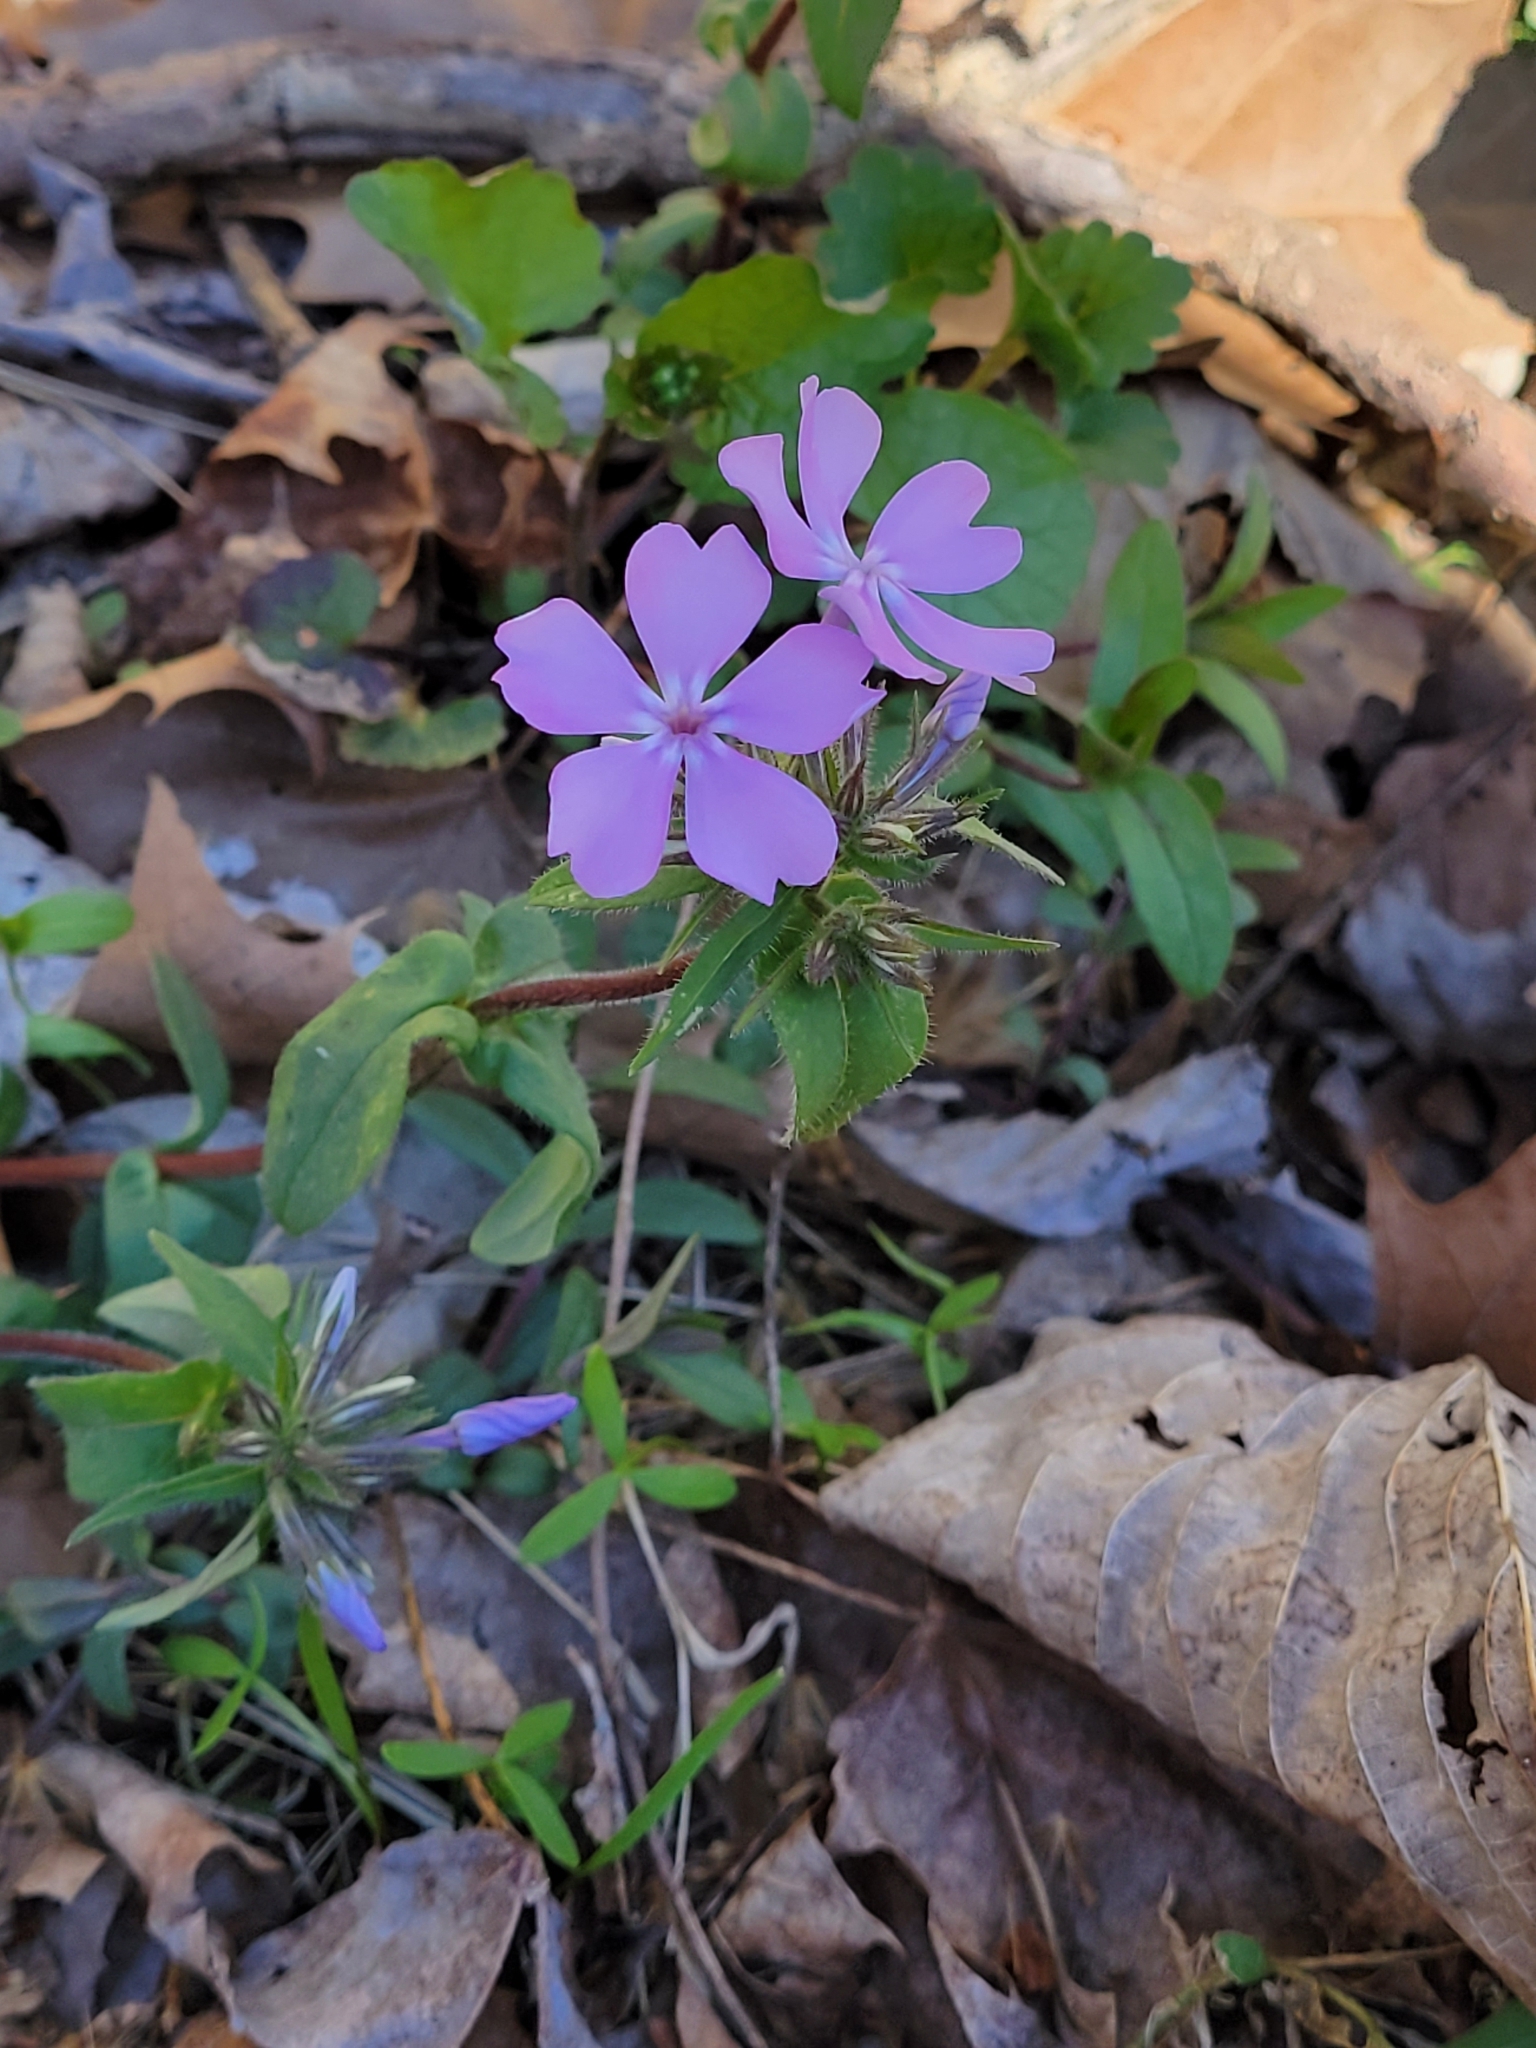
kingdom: Plantae
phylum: Tracheophyta
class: Magnoliopsida
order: Ericales
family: Polemoniaceae
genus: Phlox
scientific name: Phlox divaricata
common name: Blue phlox
